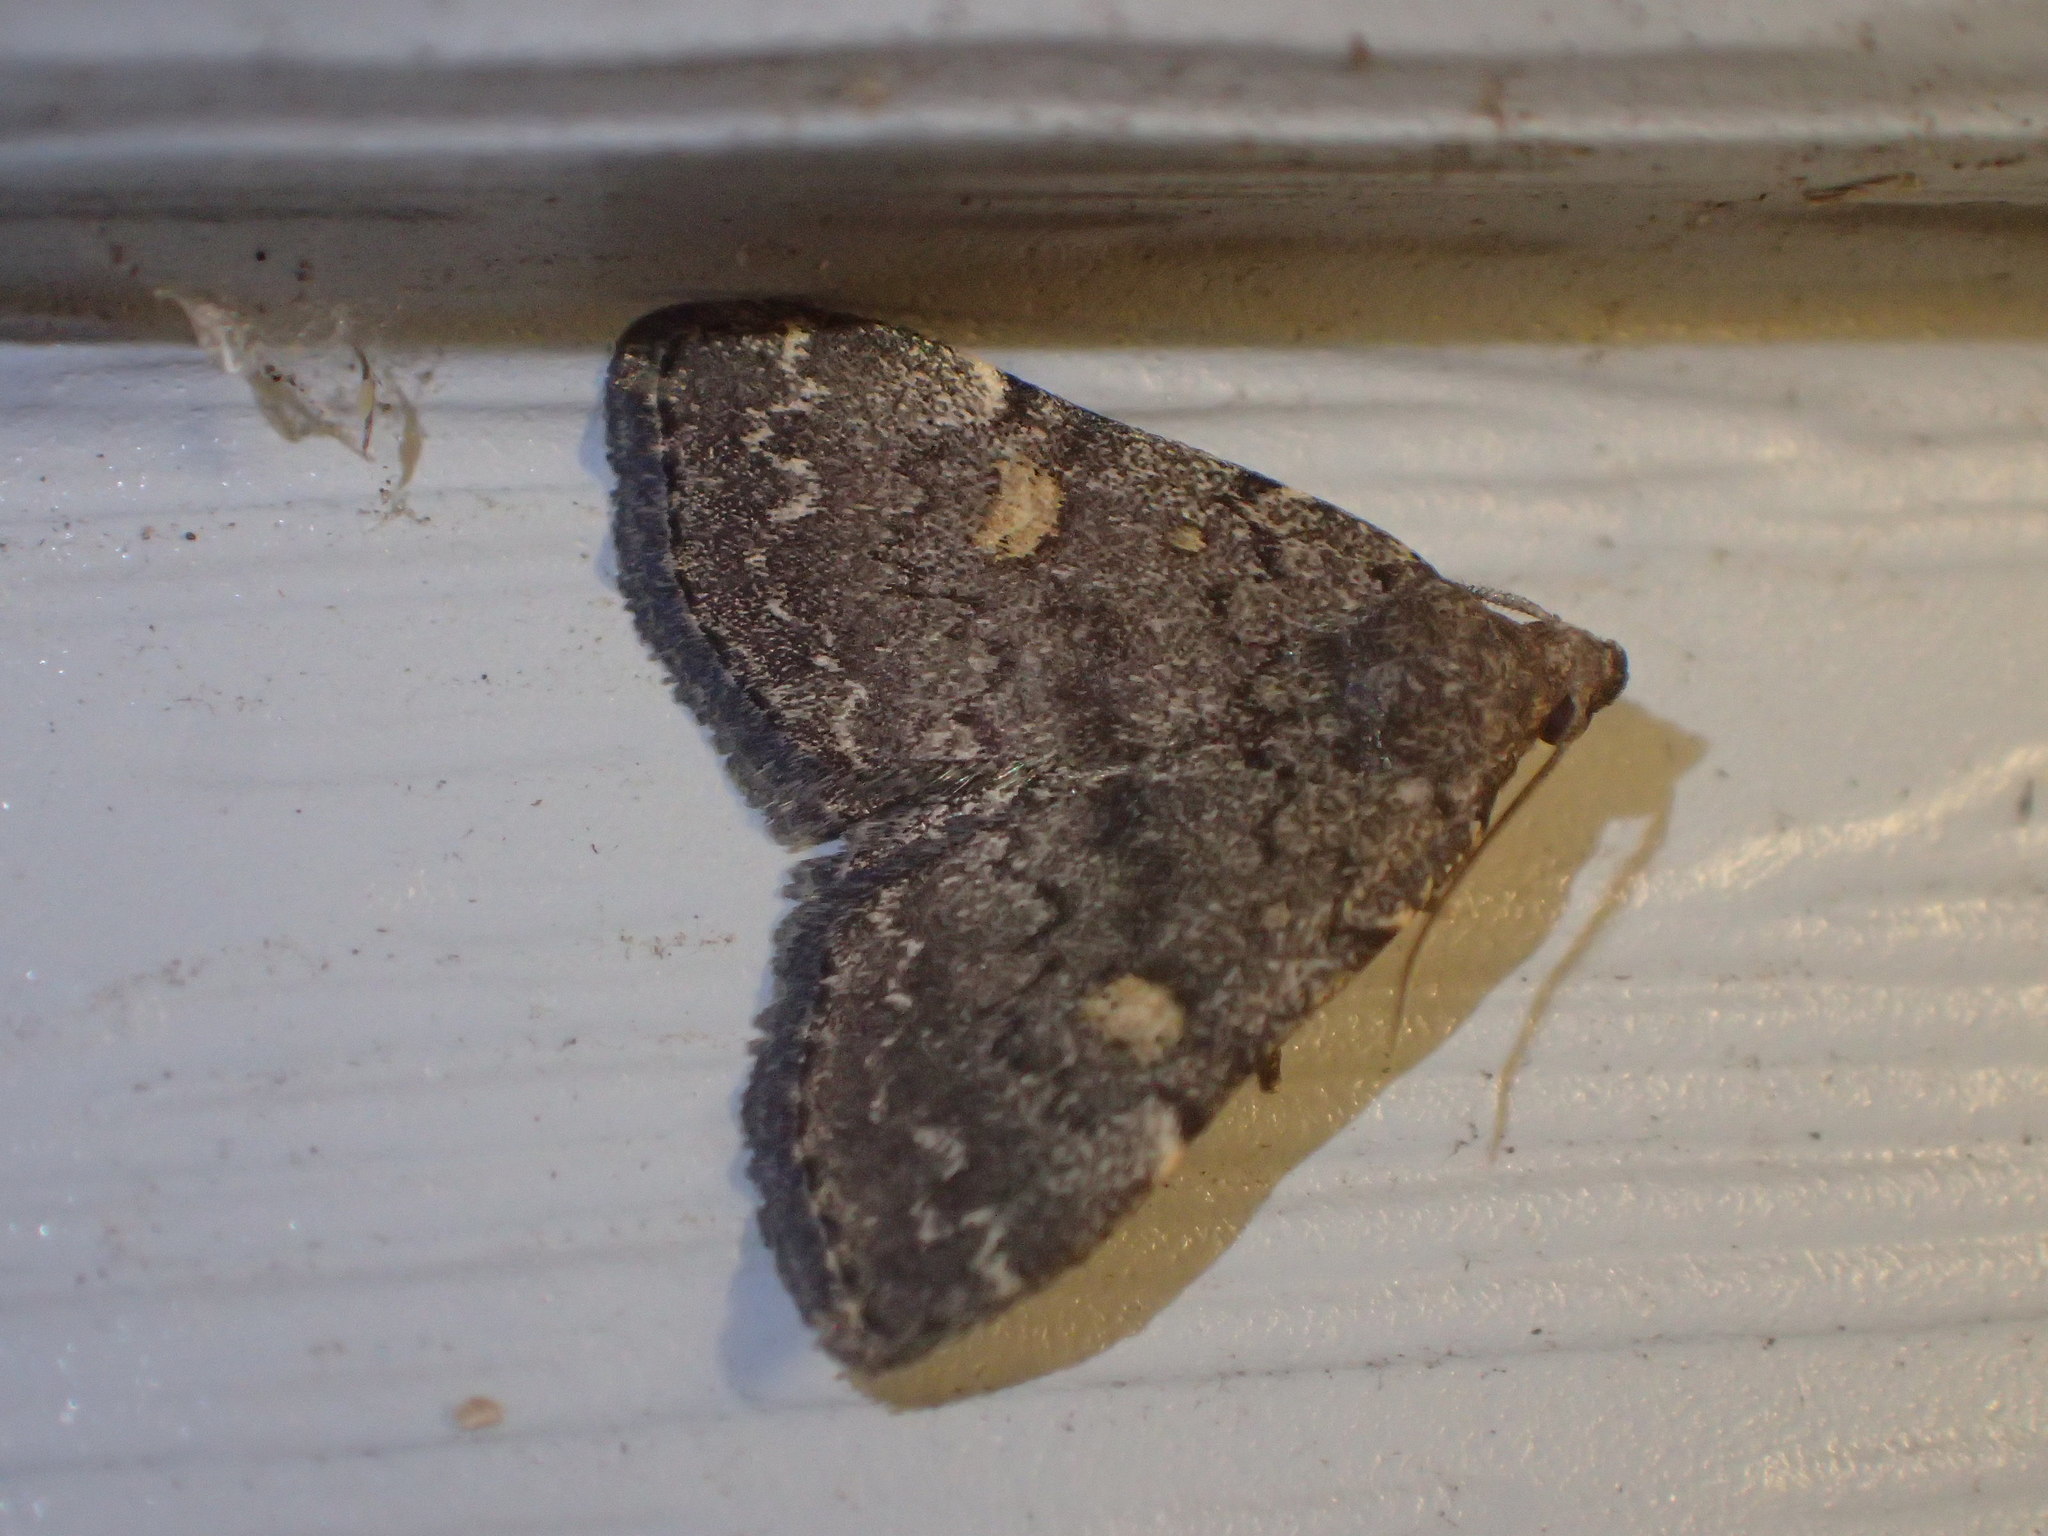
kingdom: Animalia
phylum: Arthropoda
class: Insecta
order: Lepidoptera
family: Erebidae
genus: Idia
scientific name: Idia aemula
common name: Common idia moth
